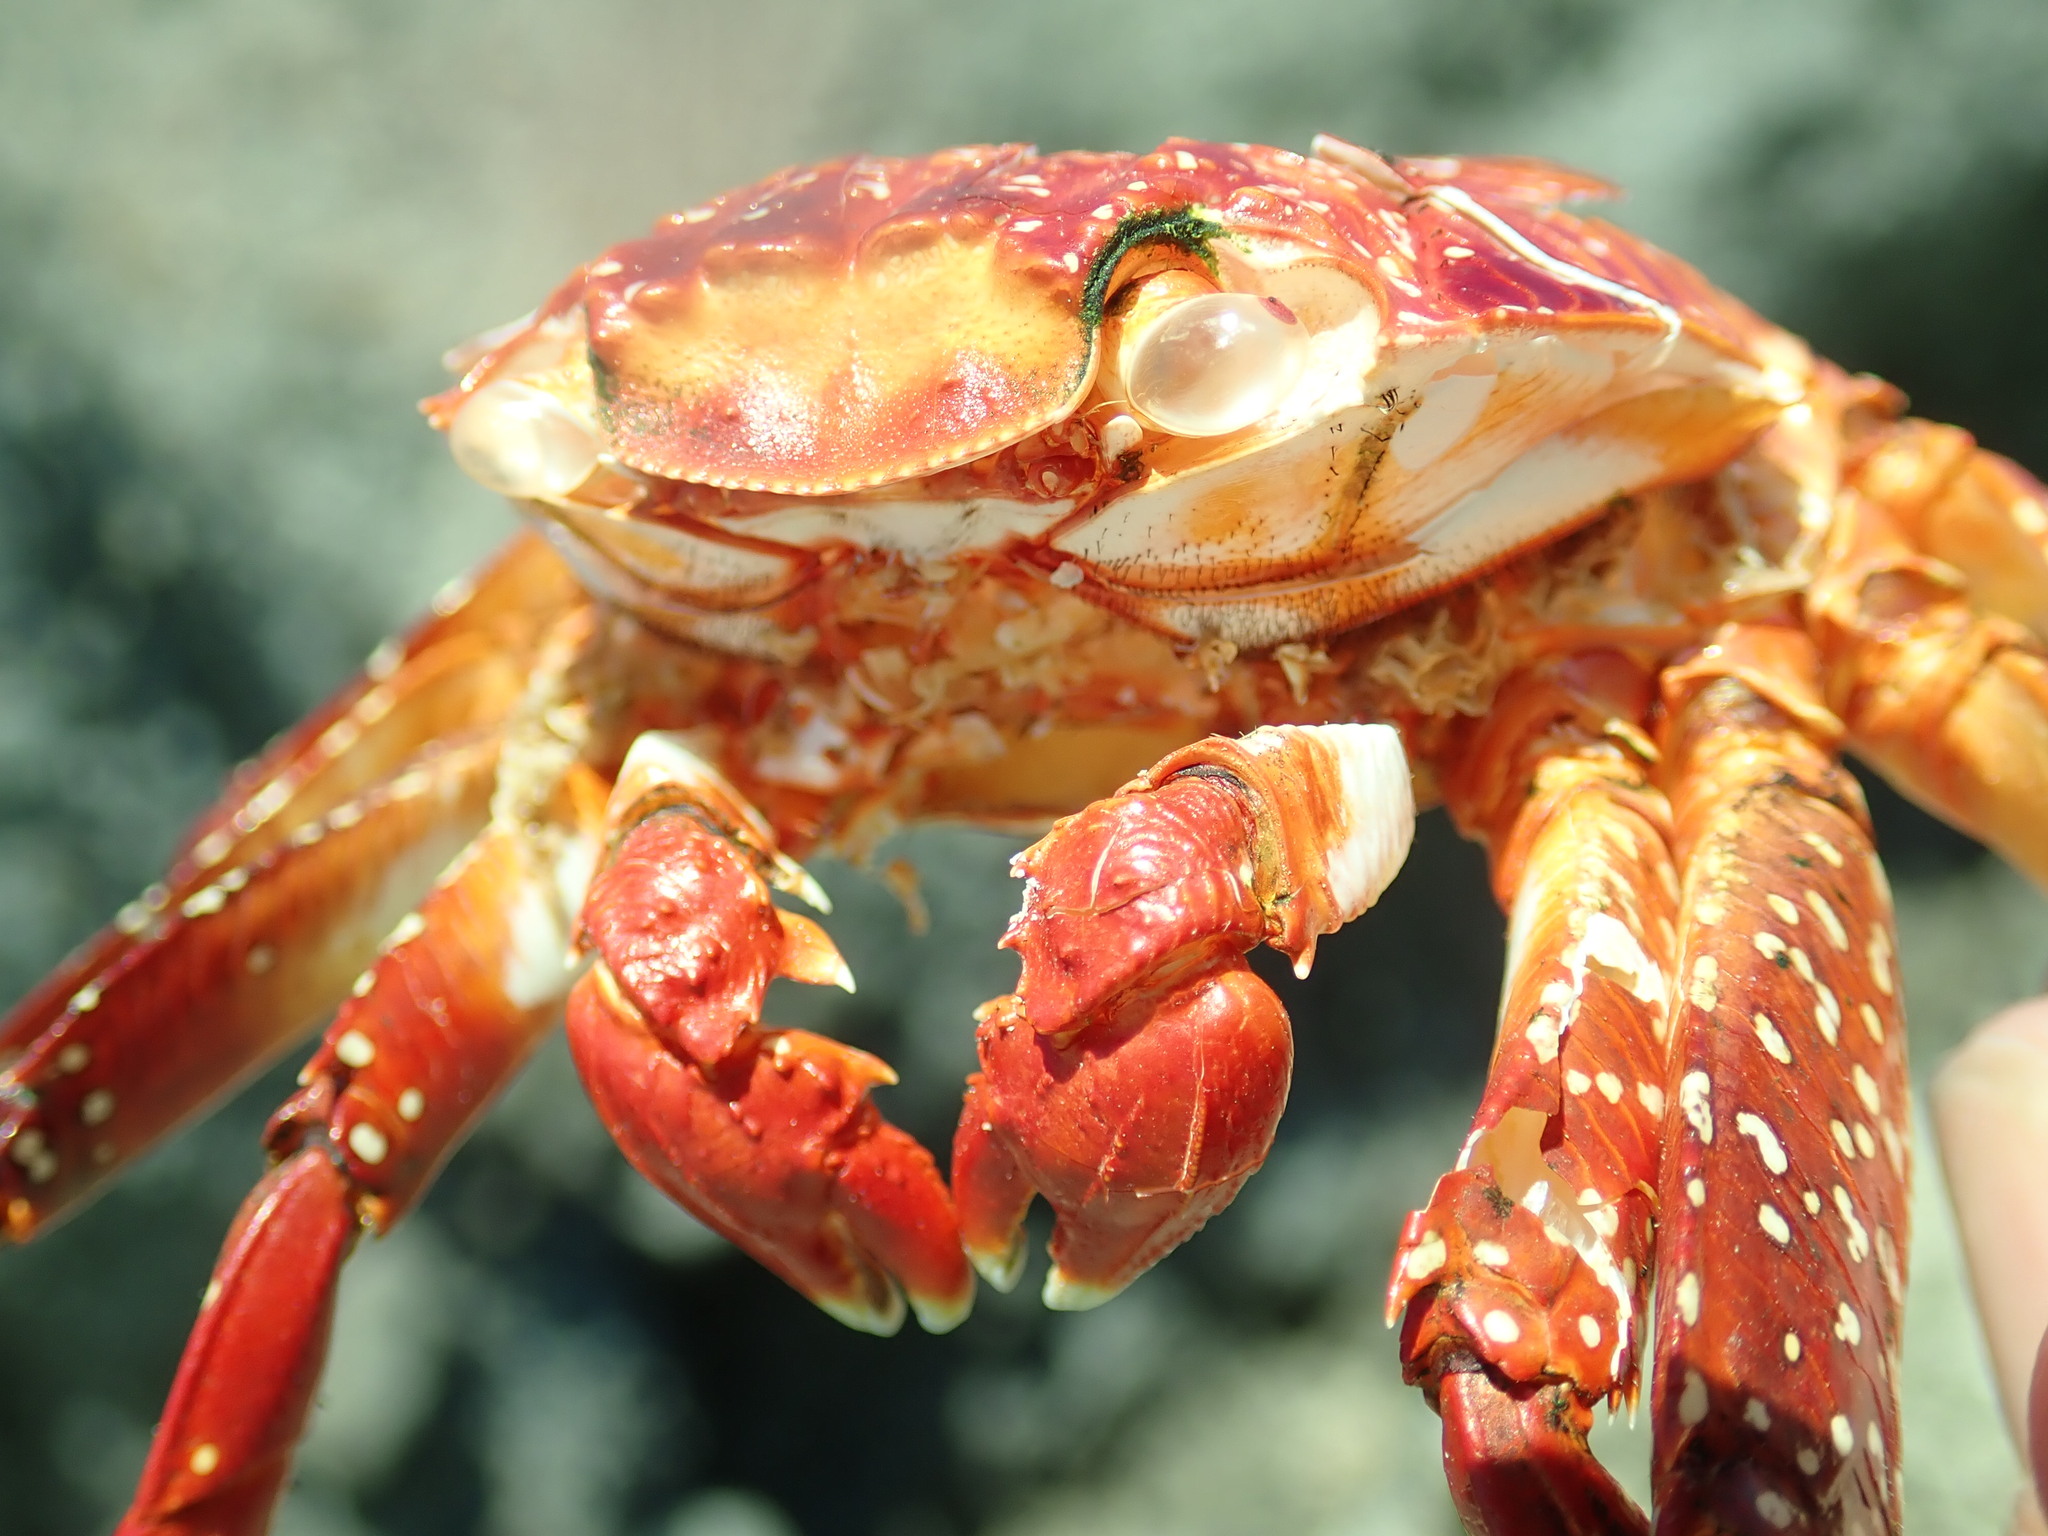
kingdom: Animalia
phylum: Arthropoda
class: Malacostraca
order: Decapoda
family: Grapsidae
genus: Grapsus
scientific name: Grapsus grapsus
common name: Sally lightfoot
